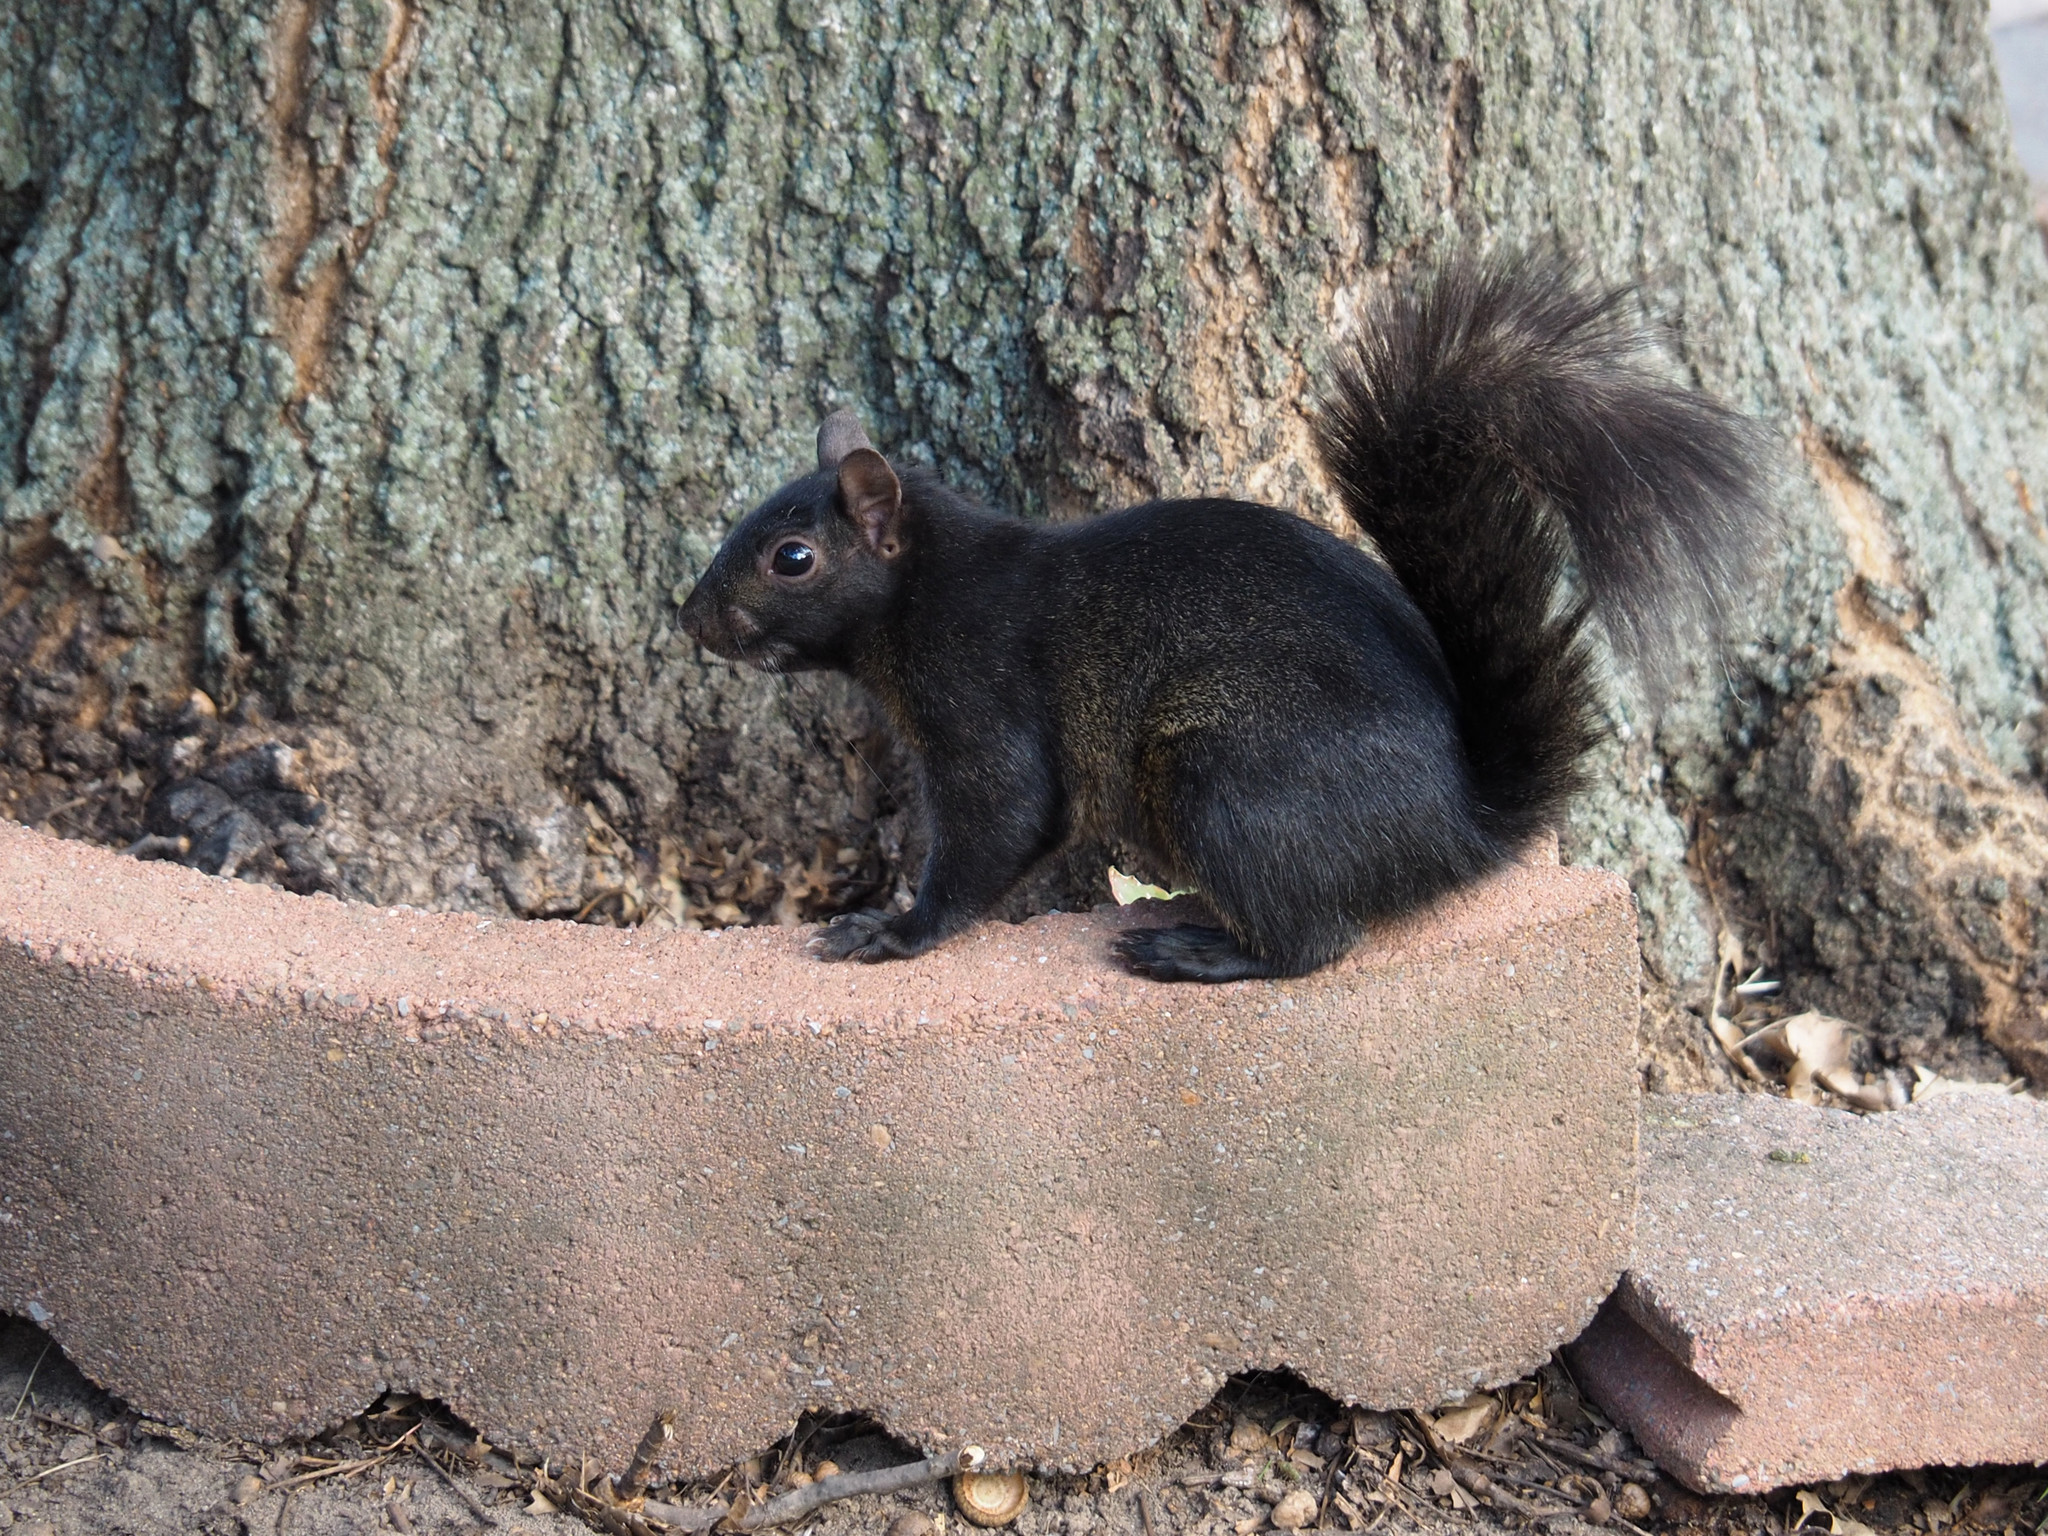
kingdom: Animalia
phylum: Chordata
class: Mammalia
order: Rodentia
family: Sciuridae
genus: Sciurus
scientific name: Sciurus carolinensis
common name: Eastern gray squirrel
